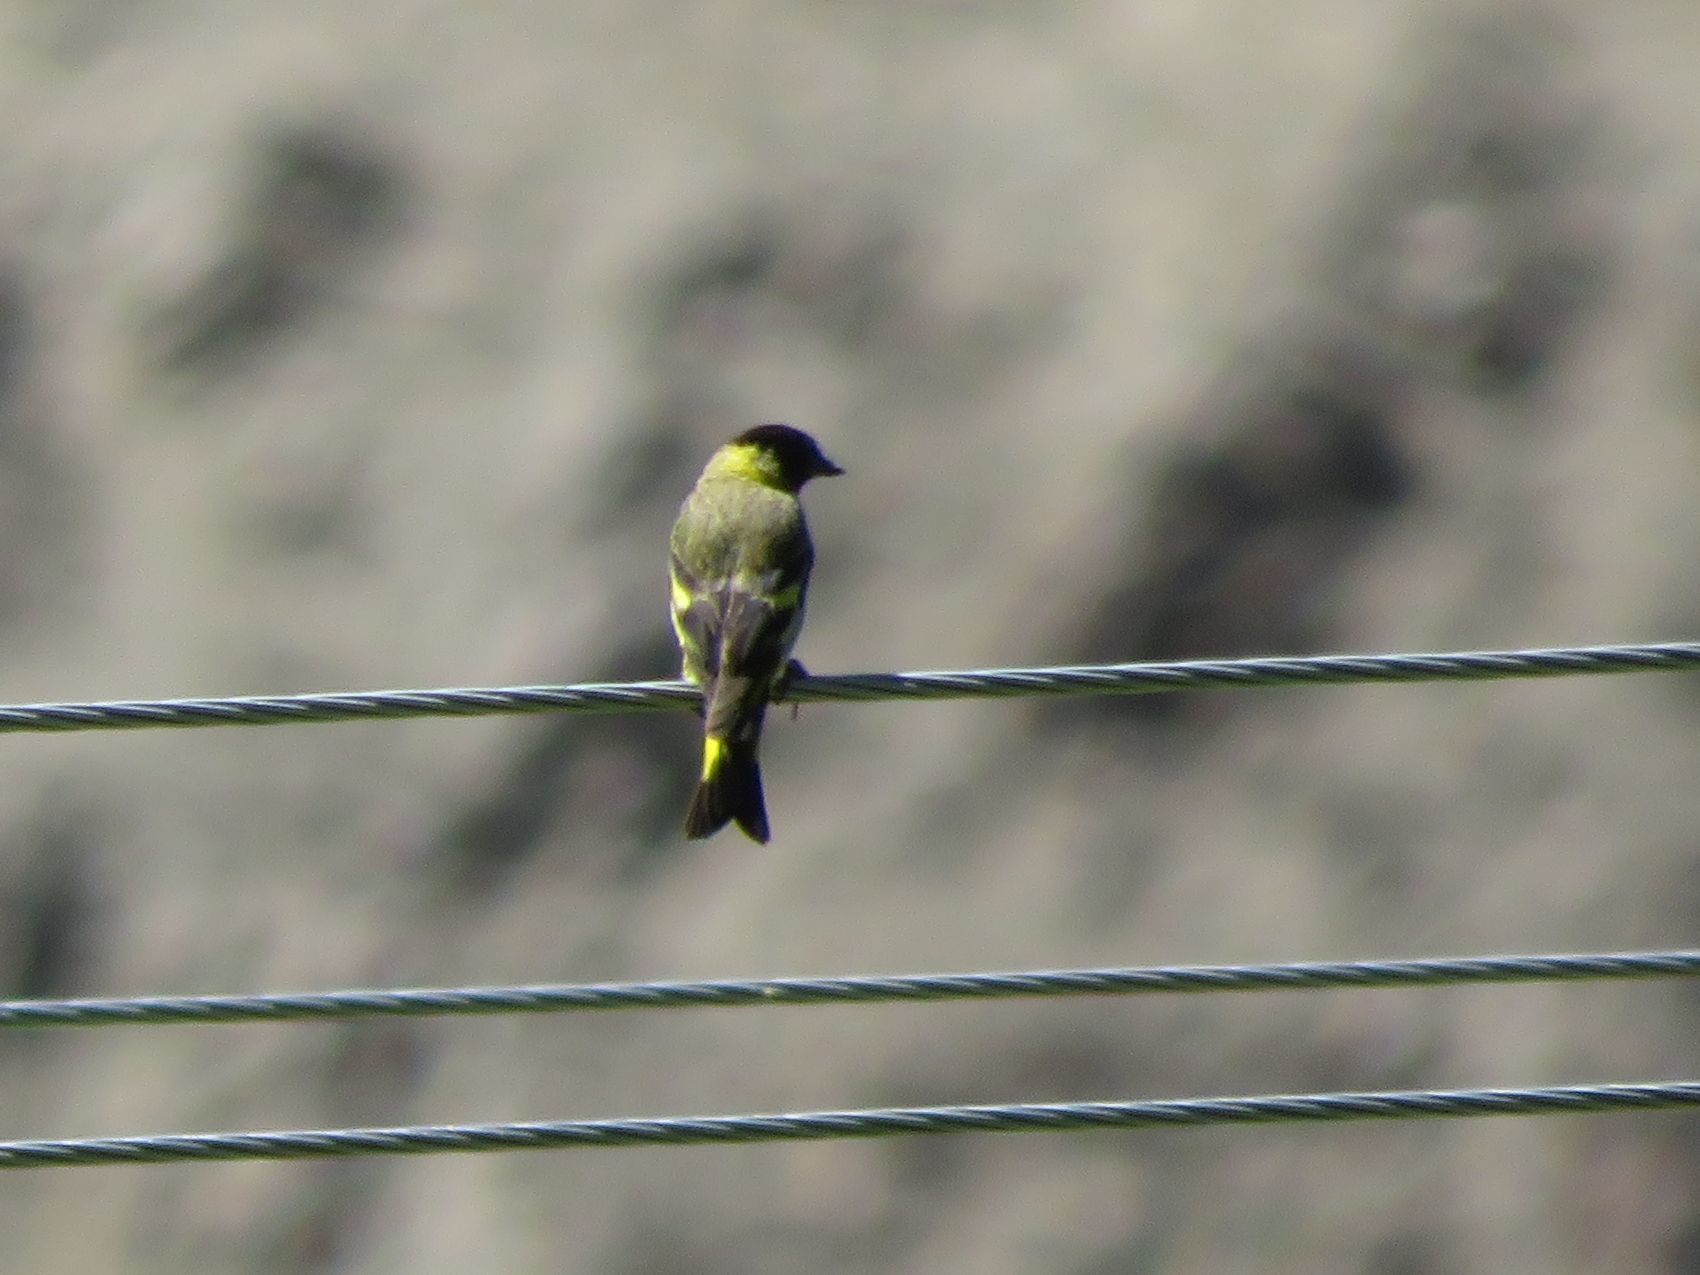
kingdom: Animalia
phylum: Chordata
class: Aves
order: Passeriformes
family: Fringillidae
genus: Spinus
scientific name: Spinus magellanicus
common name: Hooded siskin
